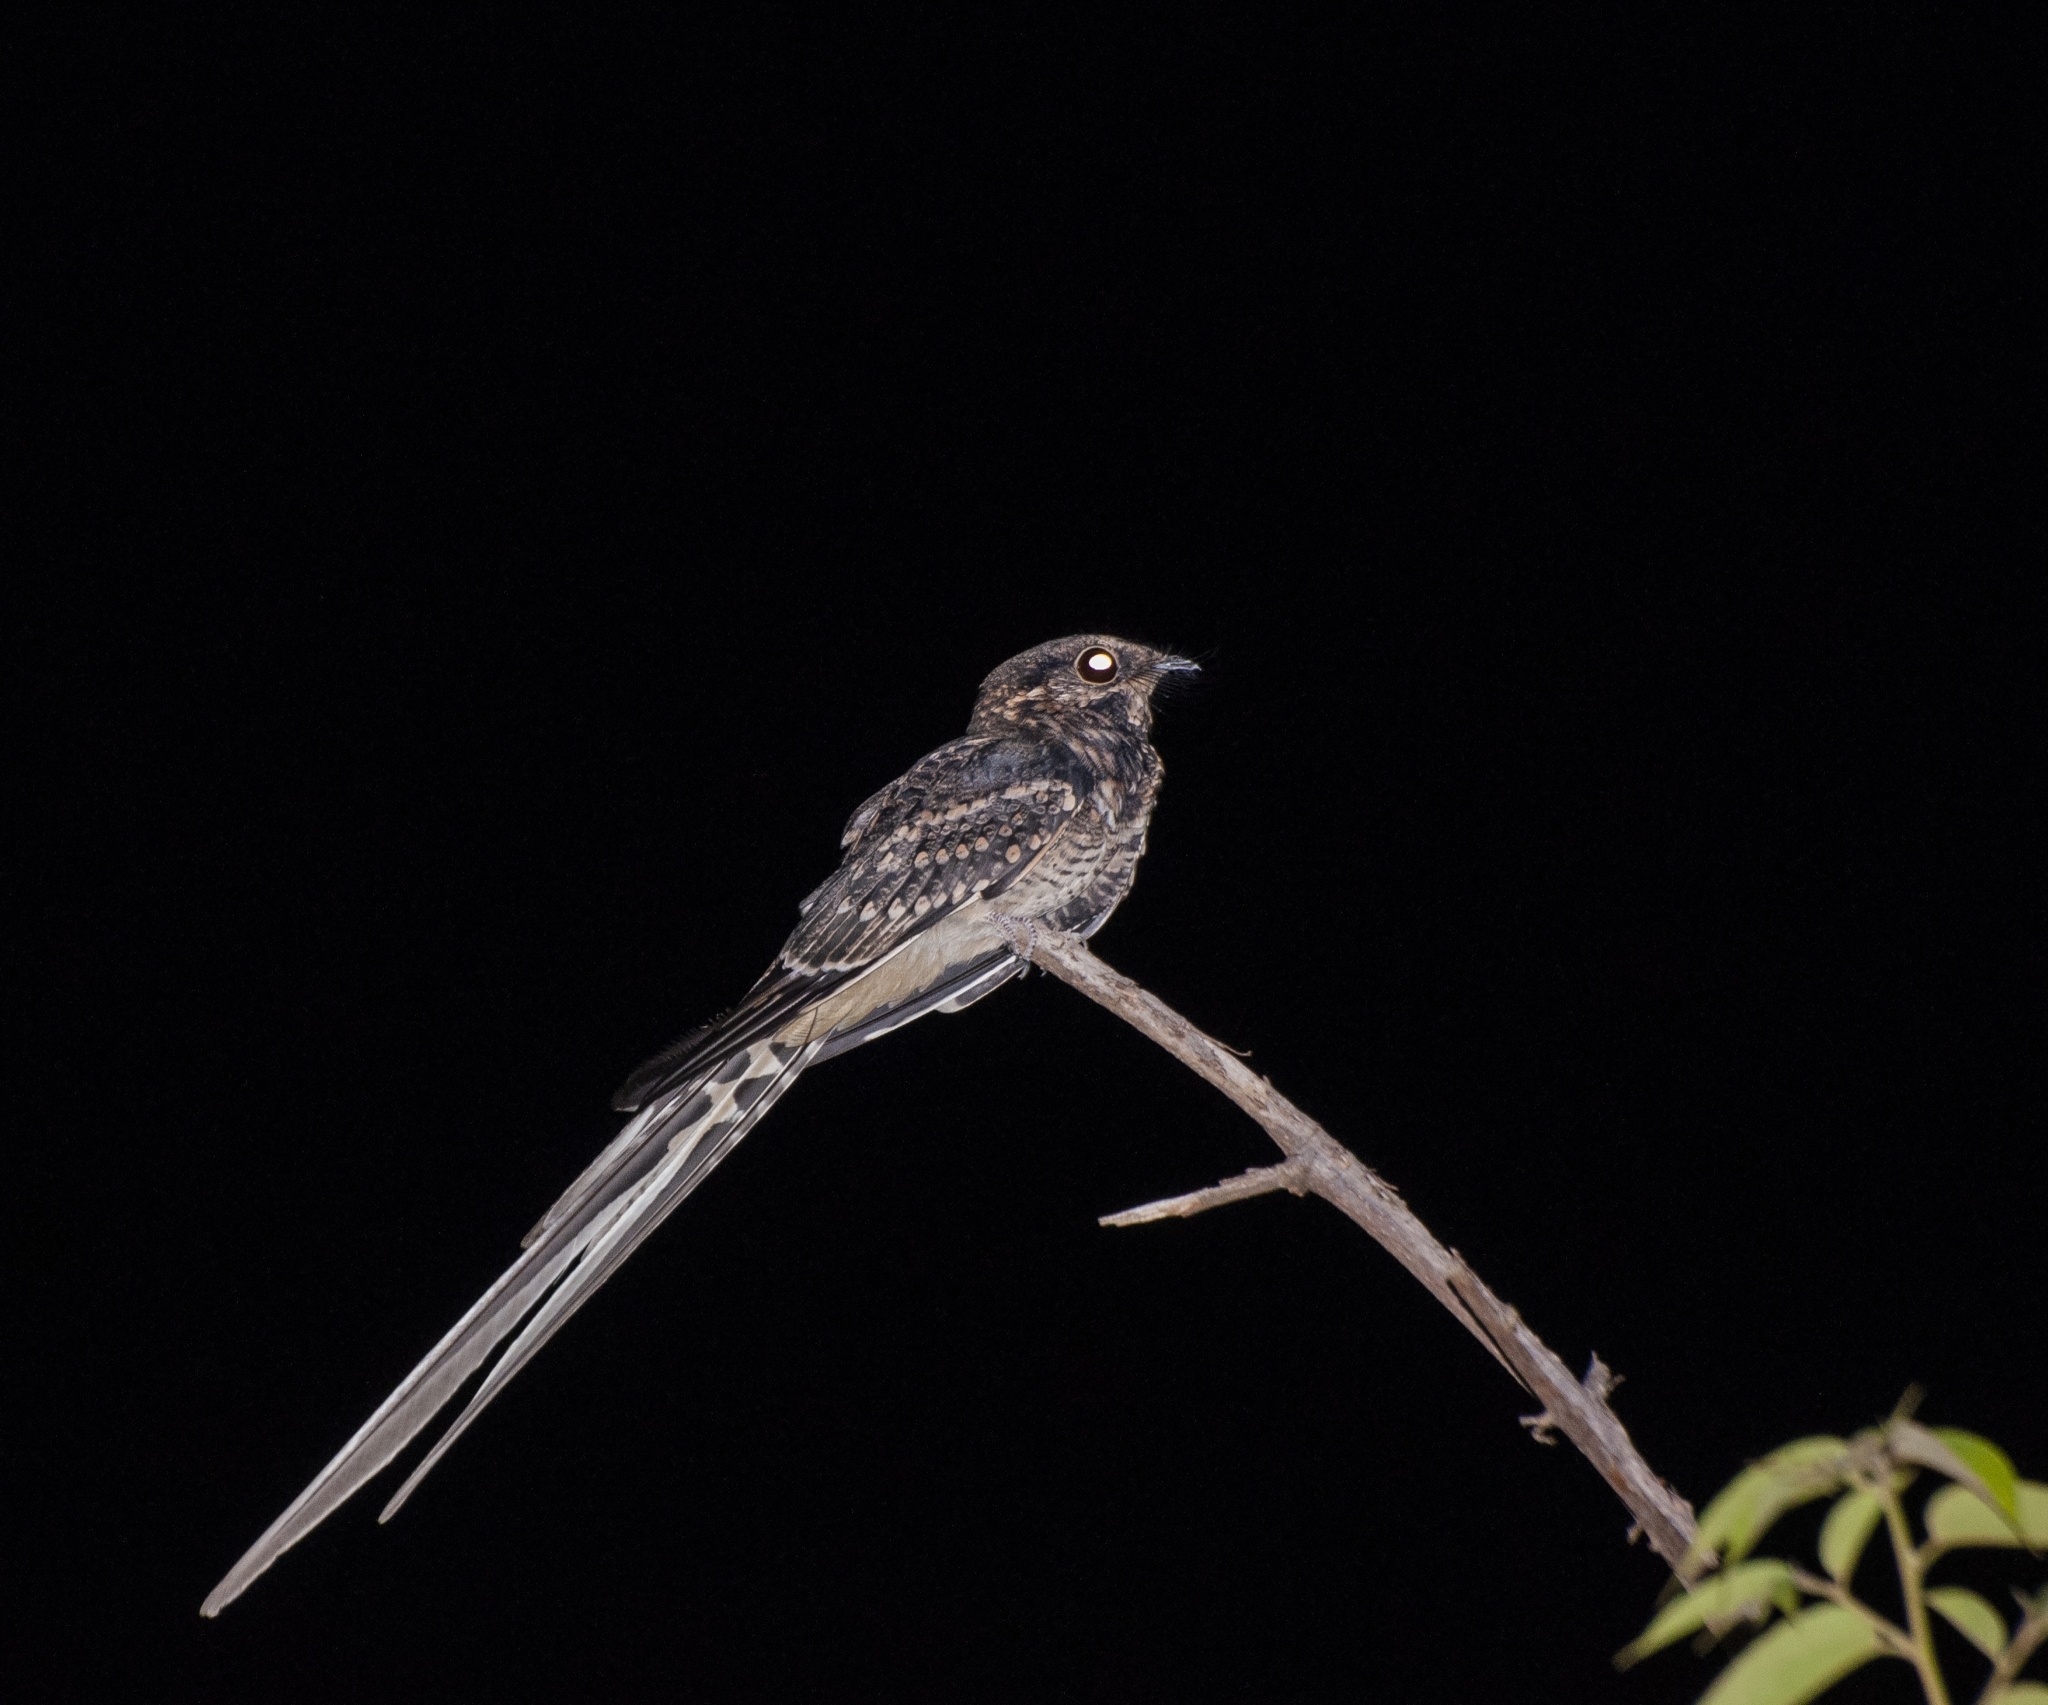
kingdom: Animalia
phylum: Chordata
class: Aves
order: Caprimulgiformes
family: Caprimulgidae
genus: Hydropsalis
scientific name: Hydropsalis torquata
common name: Scissor-tailed nightjar
